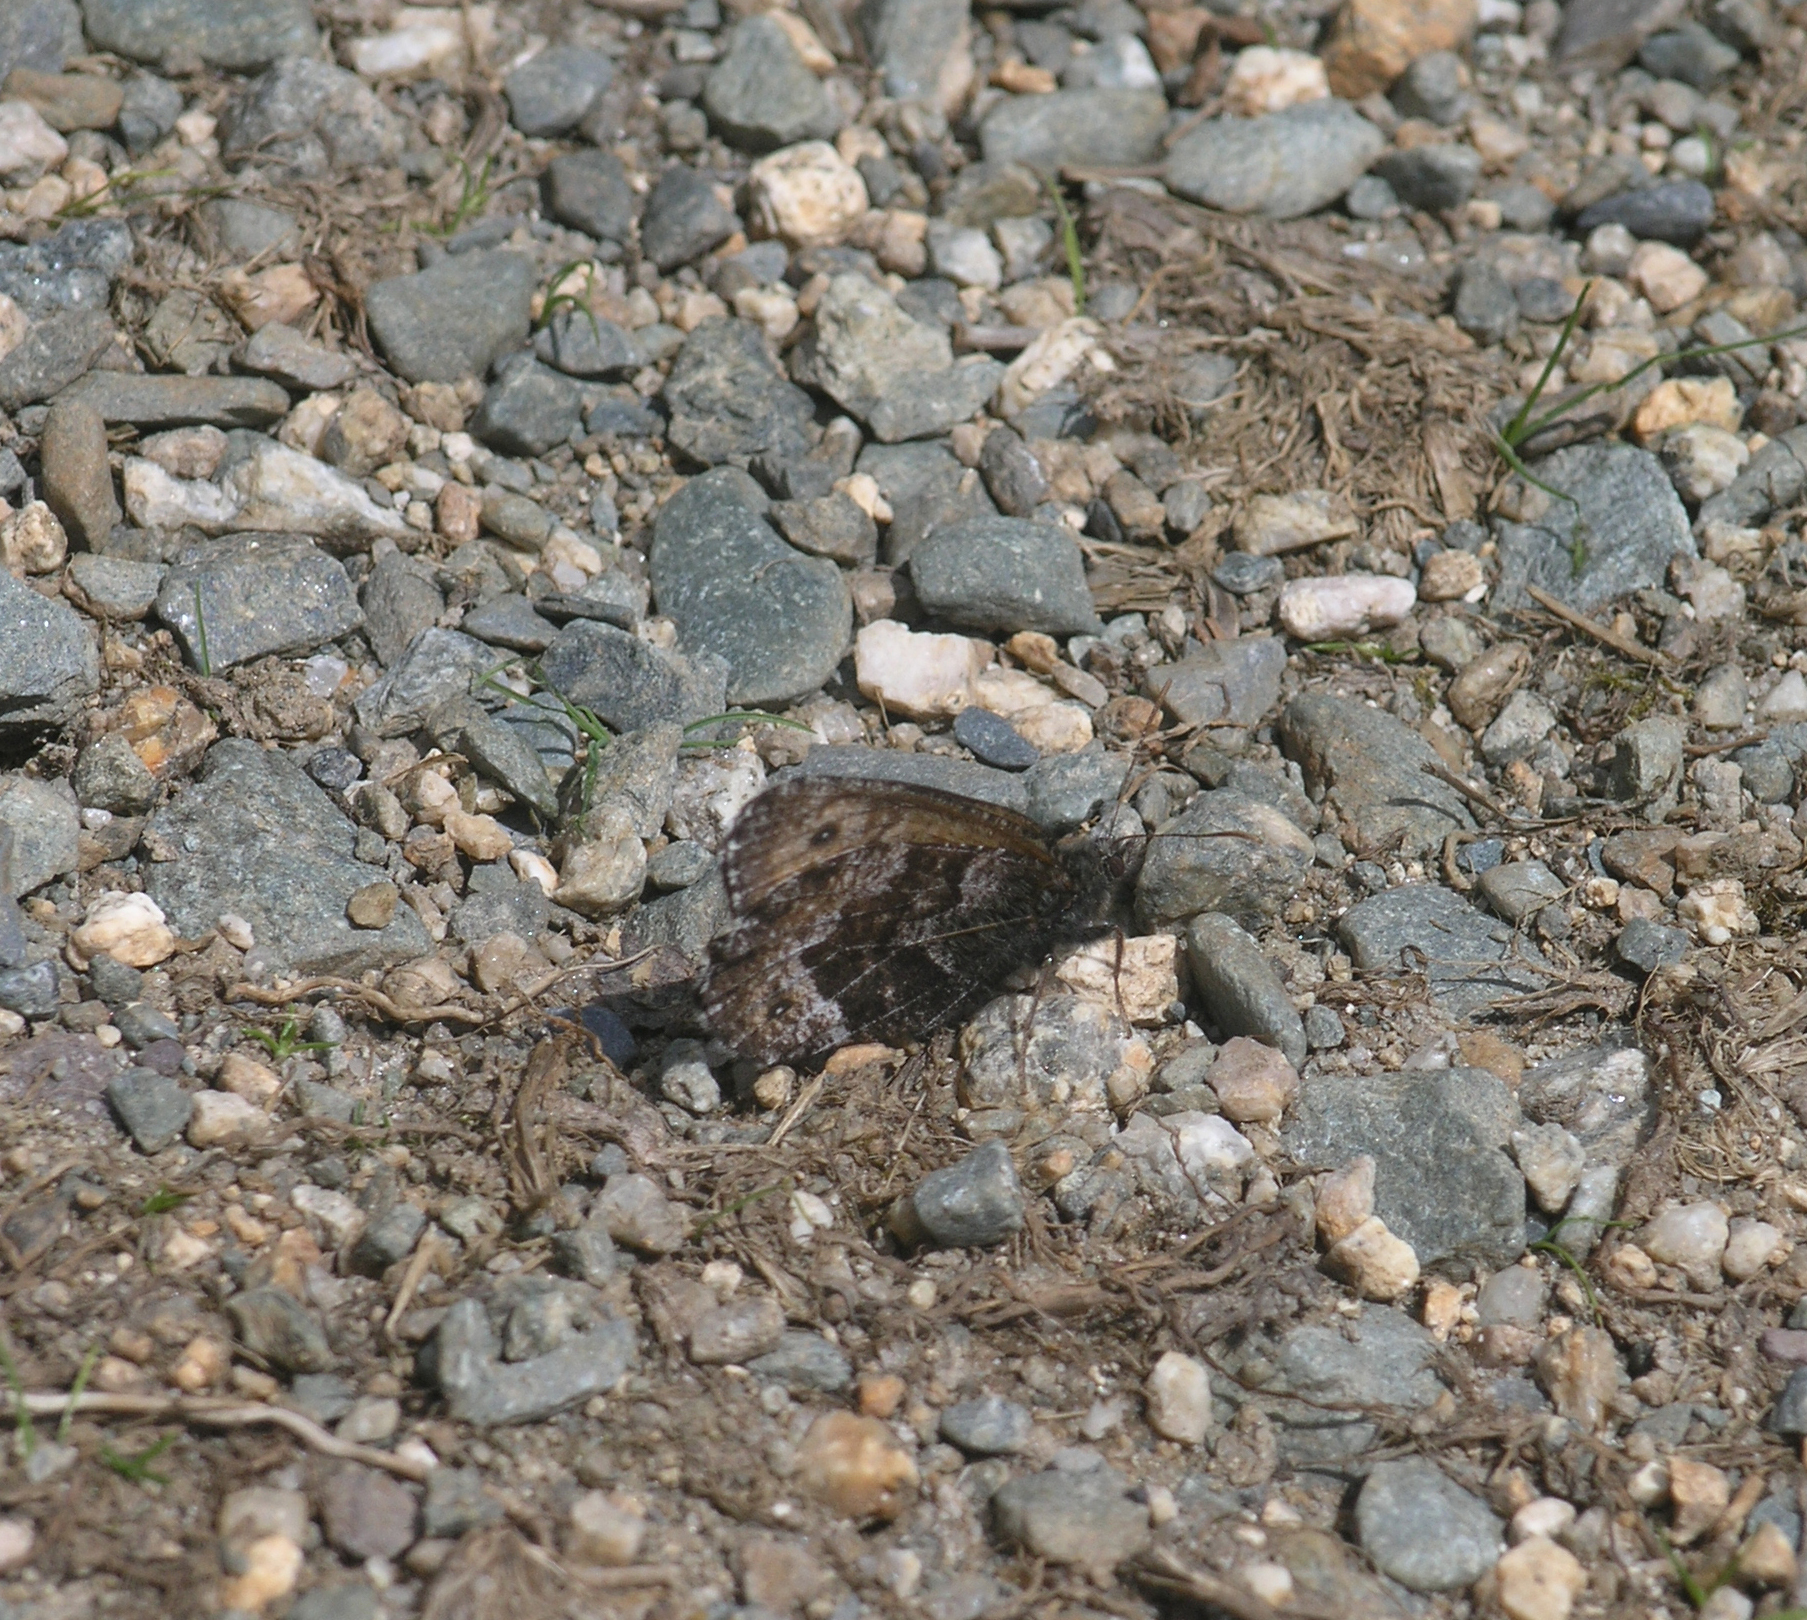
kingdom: Animalia
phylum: Arthropoda
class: Insecta
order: Lepidoptera
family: Nymphalidae
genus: Oeneis
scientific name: Oeneis norna
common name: Norse grayling
